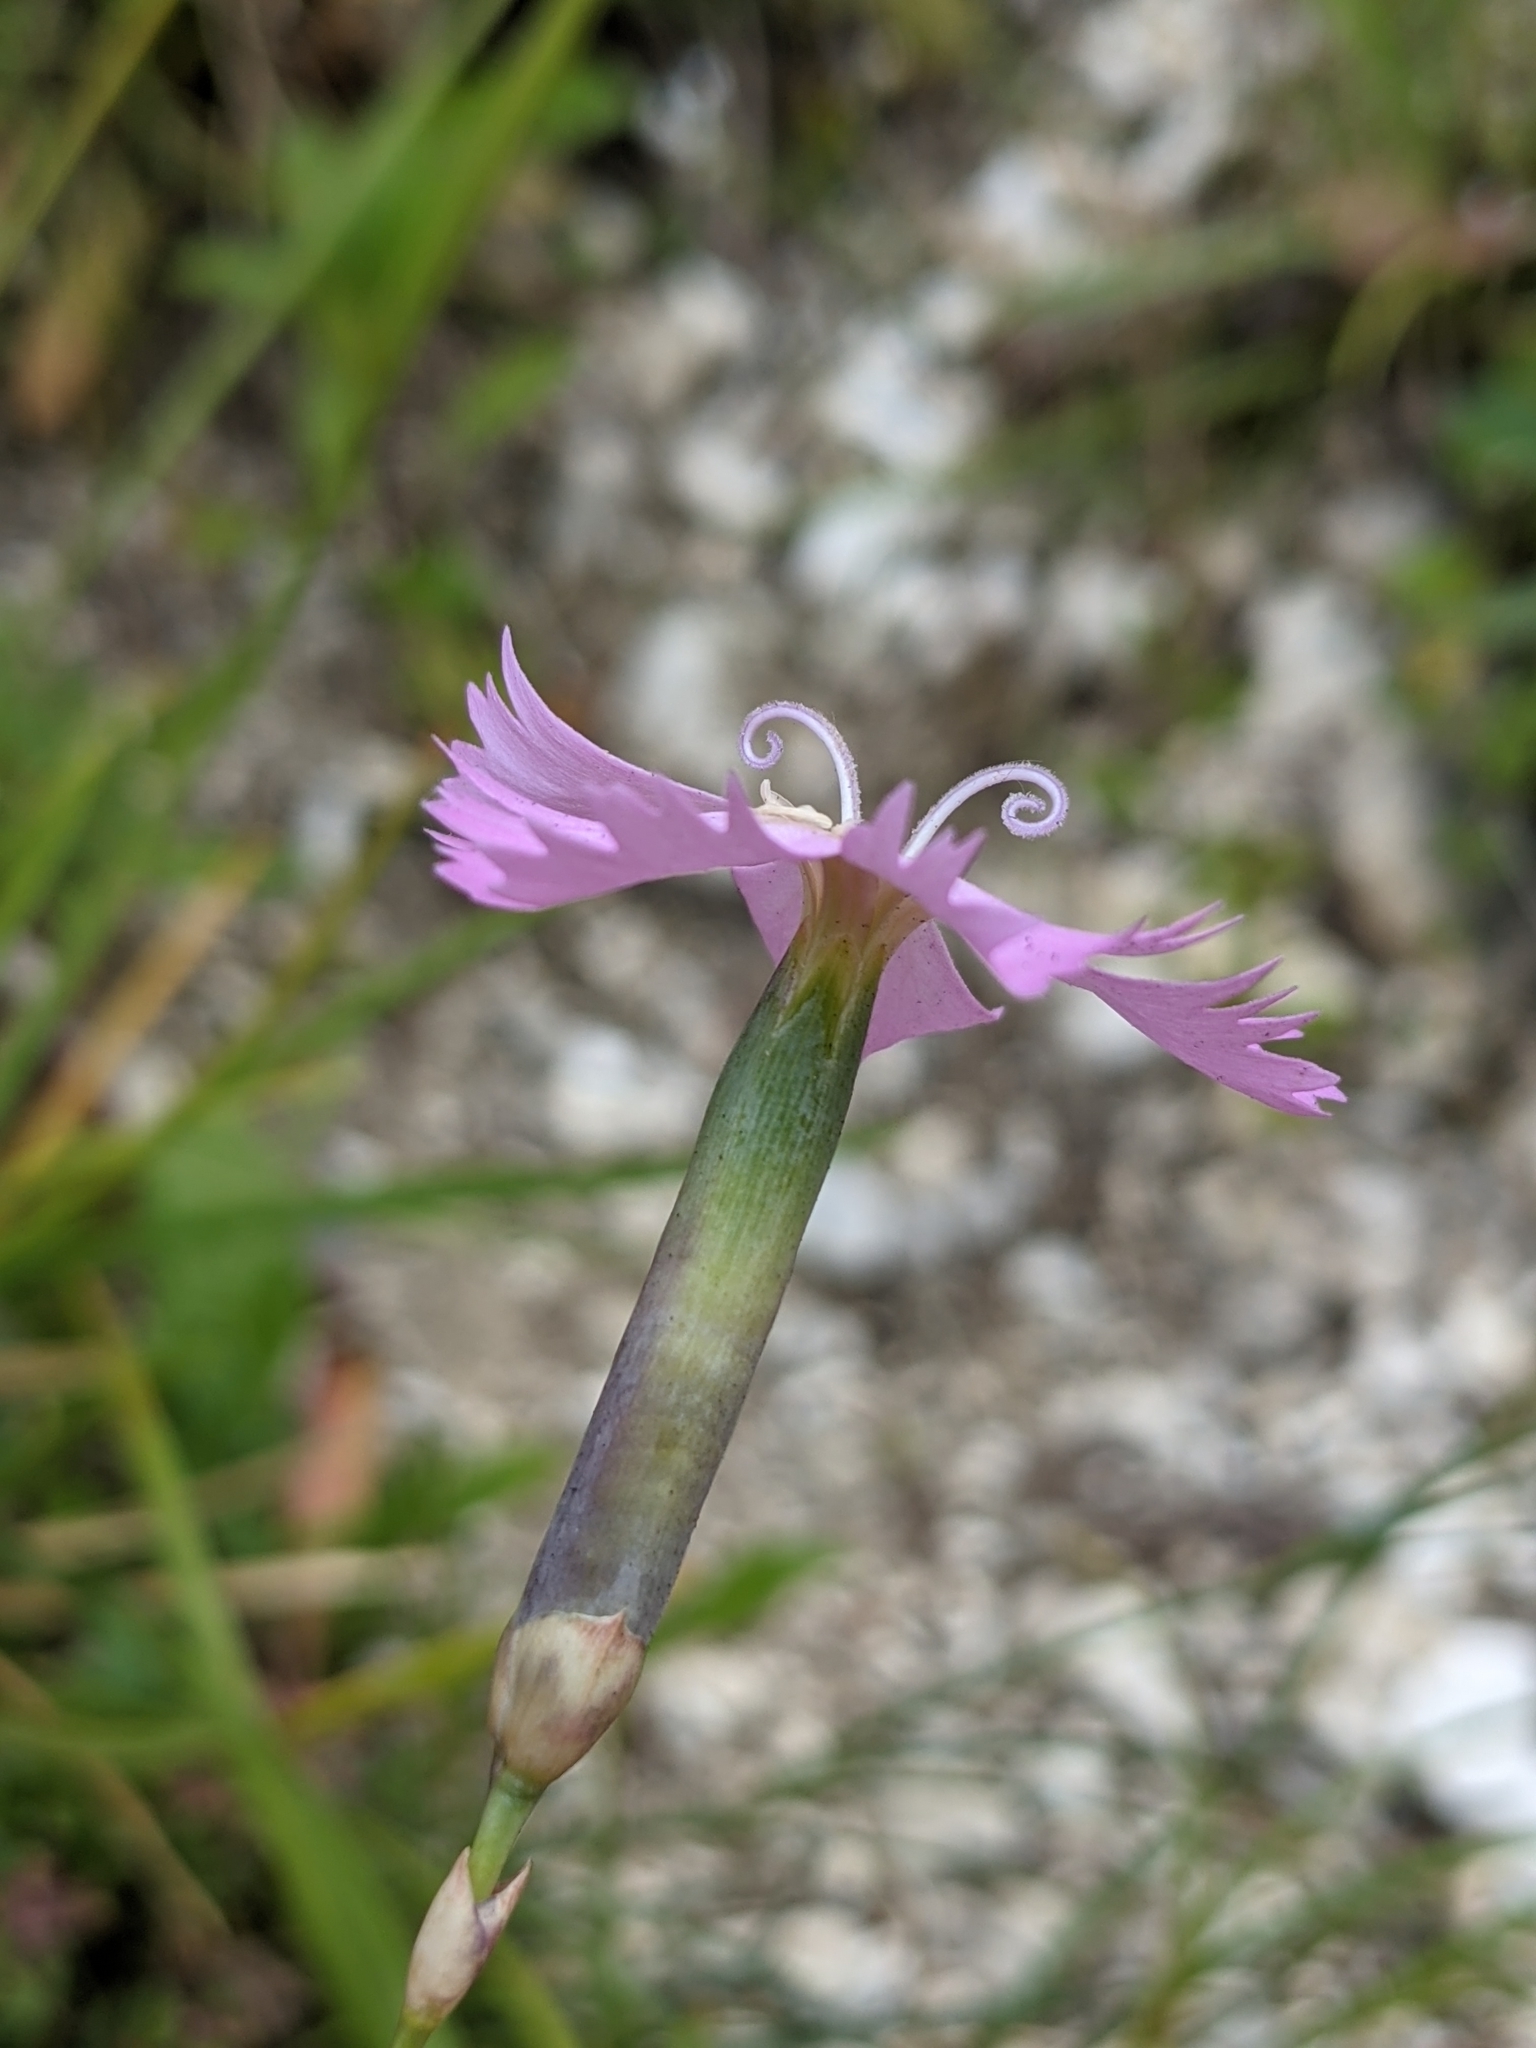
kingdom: Plantae
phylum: Tracheophyta
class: Magnoliopsida
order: Caryophyllales
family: Caryophyllaceae
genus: Dianthus
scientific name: Dianthus sylvestris
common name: Wood pink
